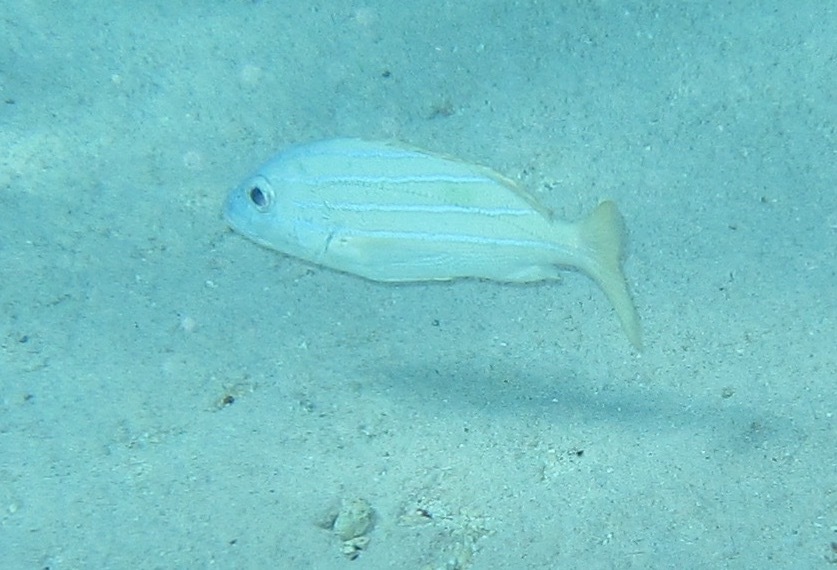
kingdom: Animalia
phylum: Chordata
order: Perciformes
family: Lutjanidae
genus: Lutjanus
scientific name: Lutjanus kasmira
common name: Common bluestripe snapper
